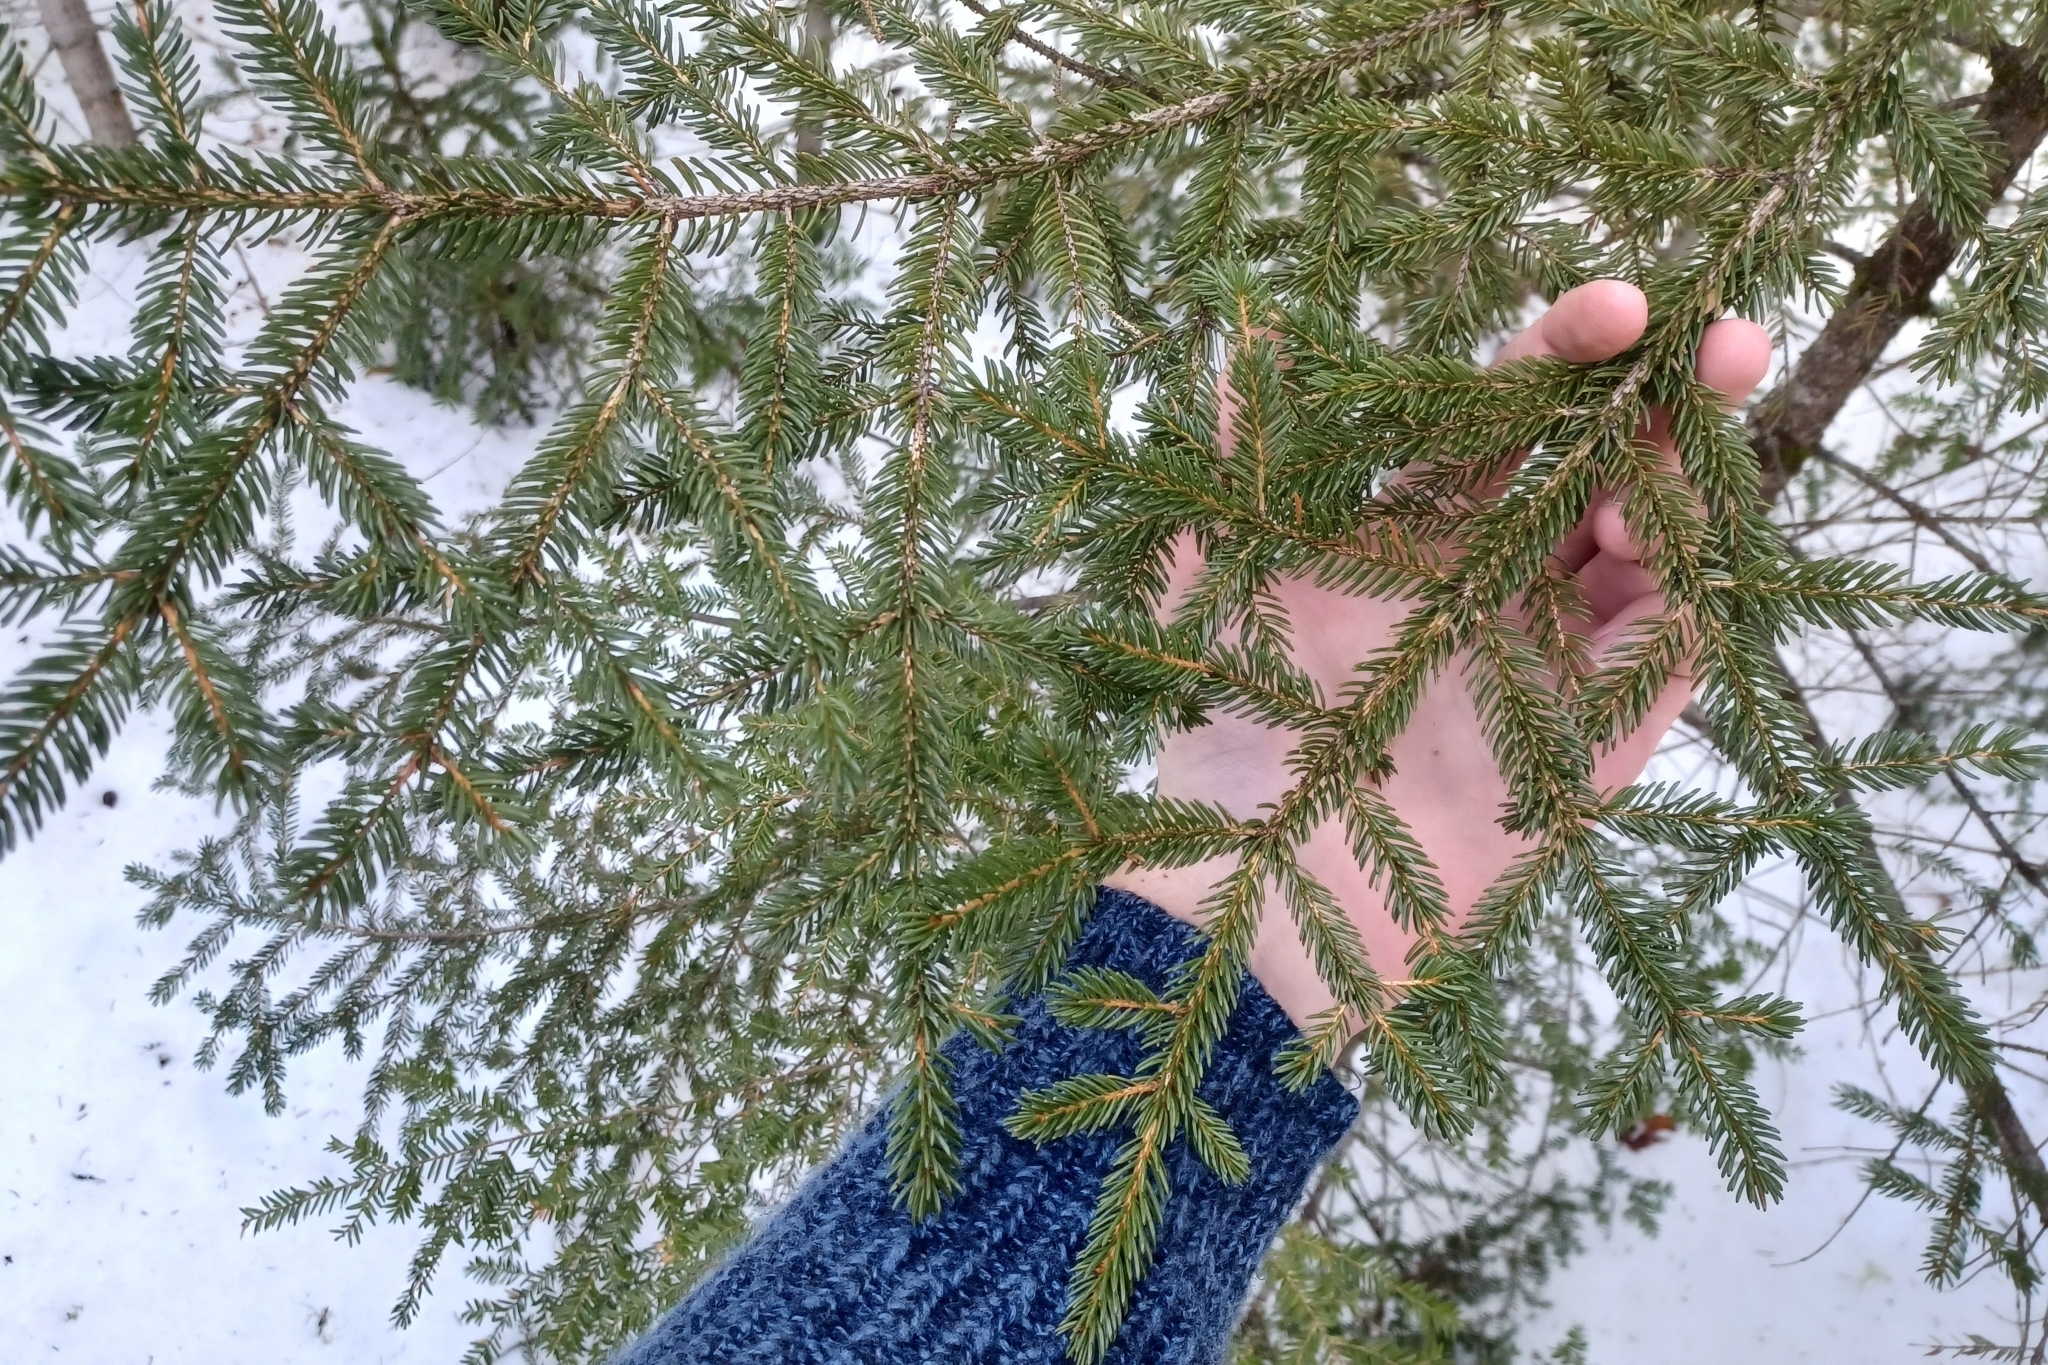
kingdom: Plantae
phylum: Tracheophyta
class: Pinopsida
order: Pinales
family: Pinaceae
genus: Picea
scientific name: Picea rubens
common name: Red spruce
